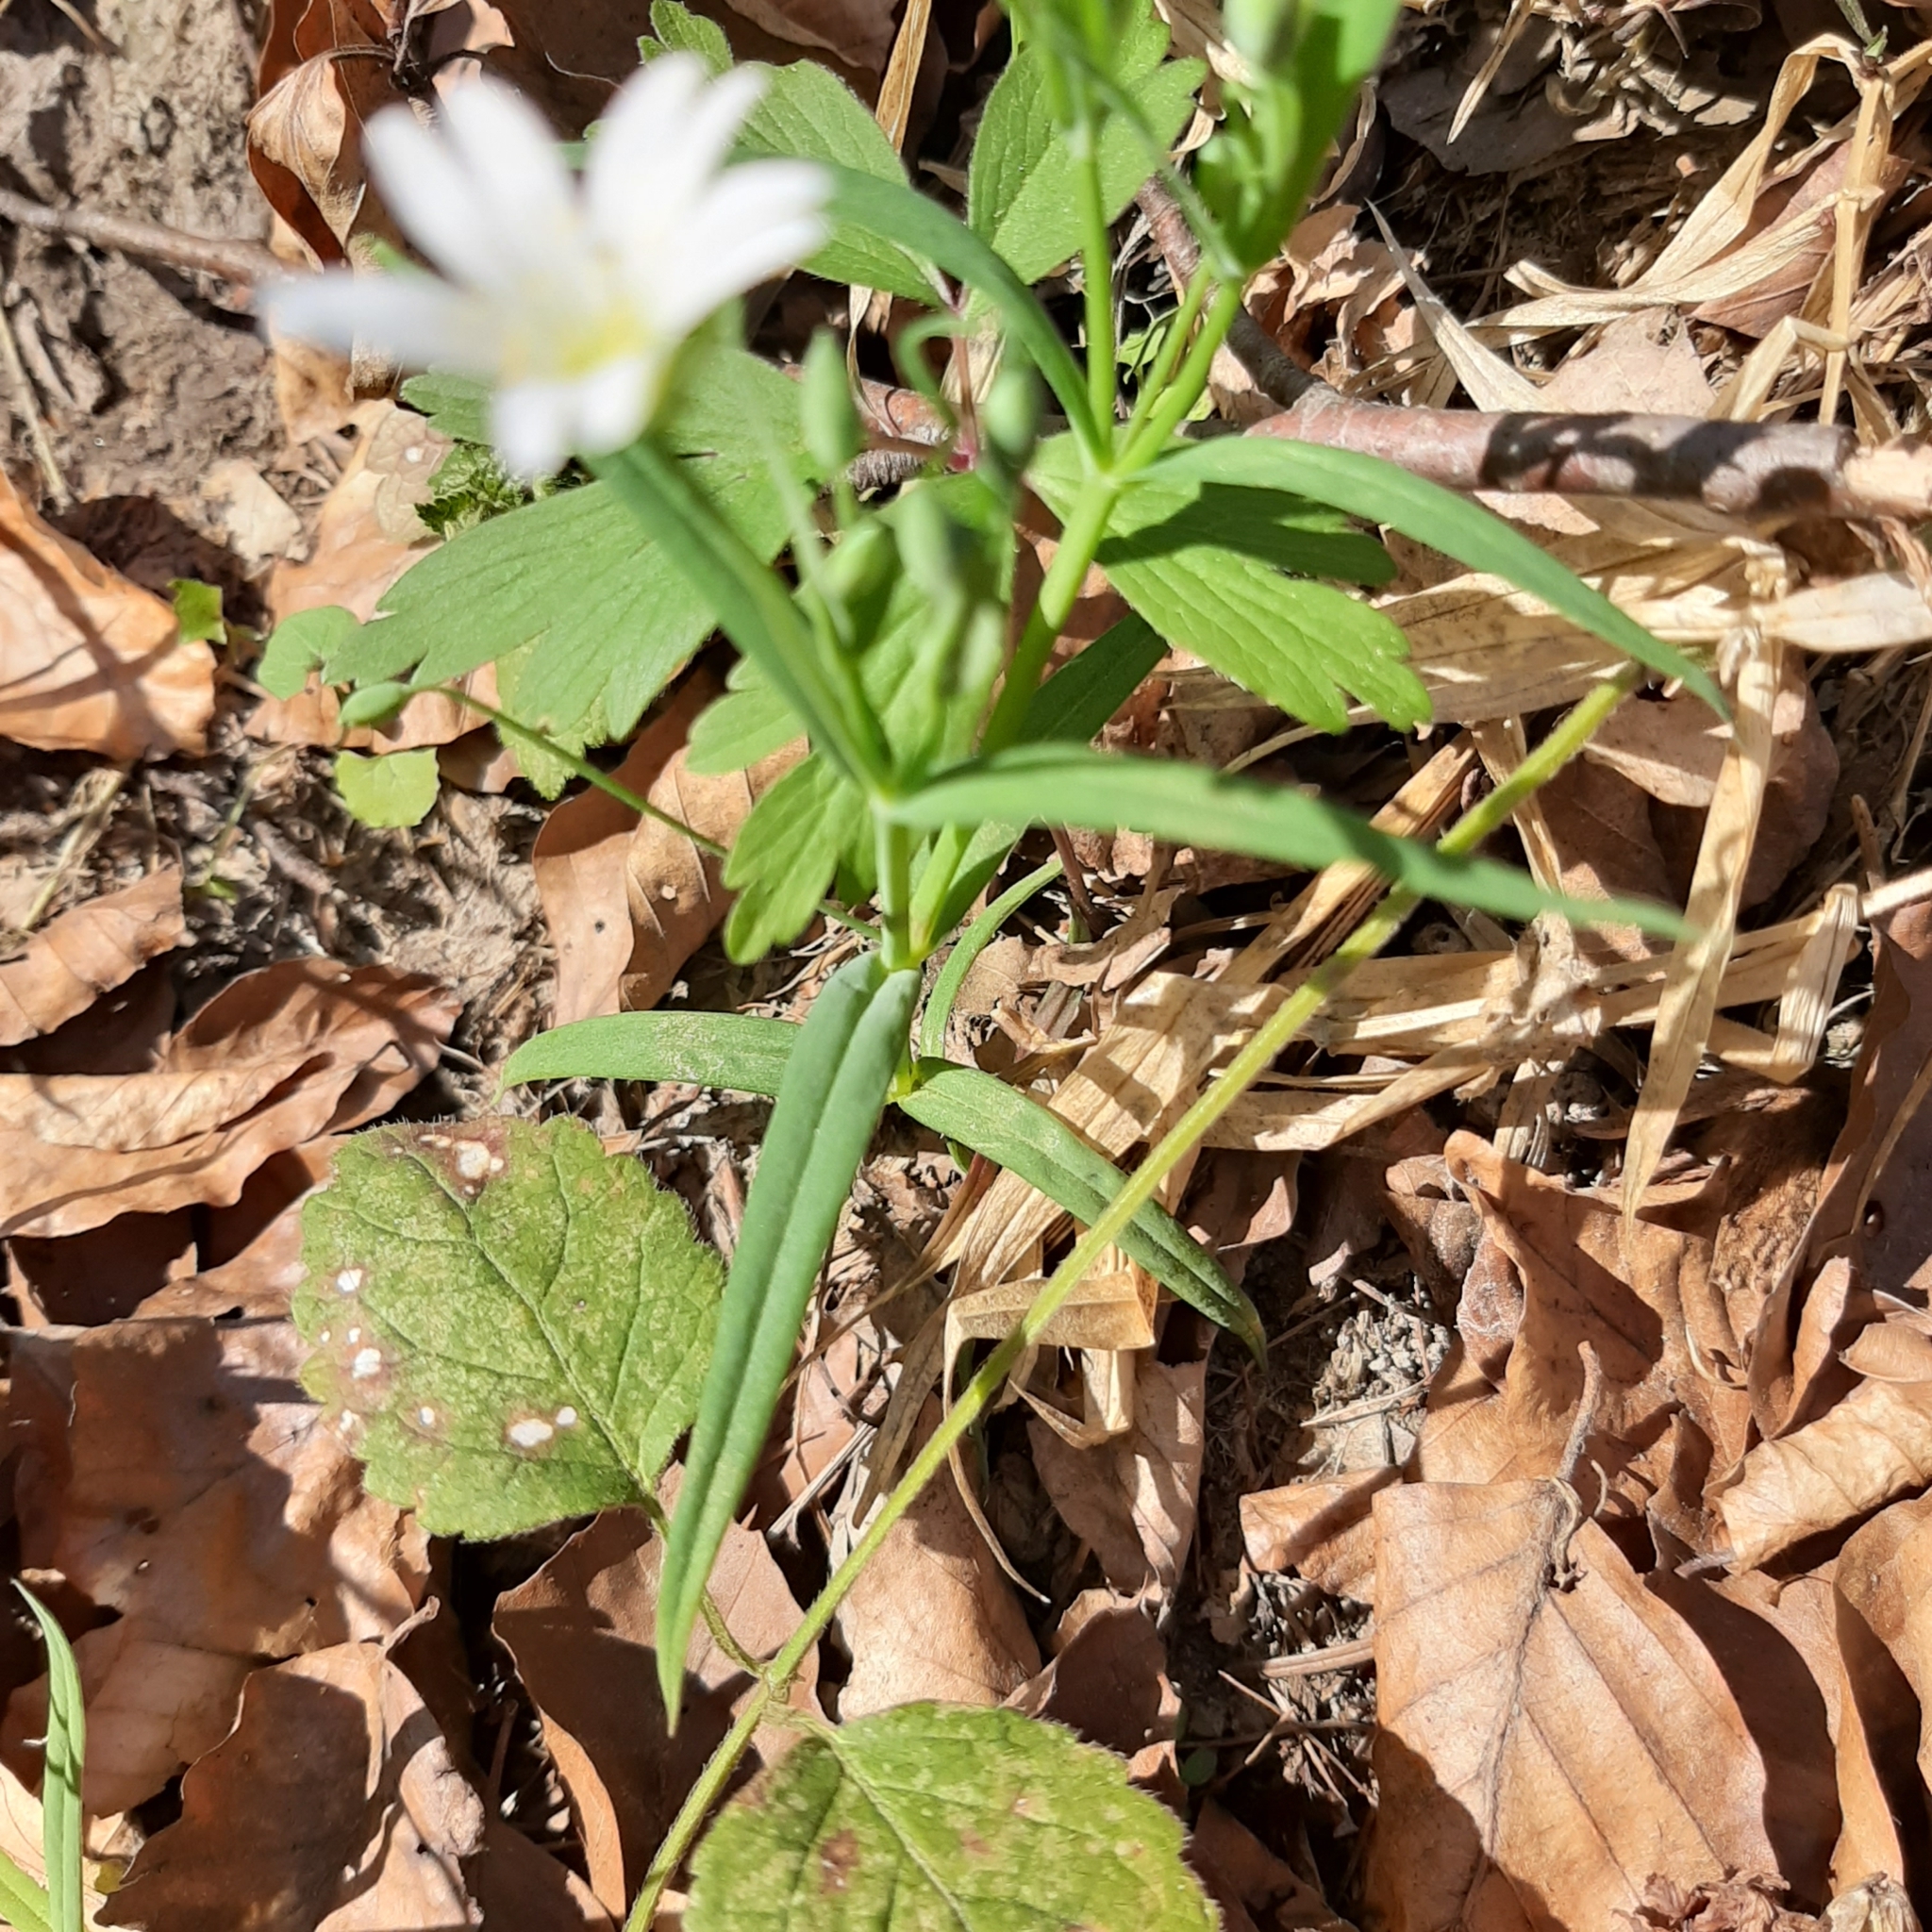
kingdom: Plantae
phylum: Tracheophyta
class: Magnoliopsida
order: Caryophyllales
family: Caryophyllaceae
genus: Rabelera
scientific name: Rabelera holostea
